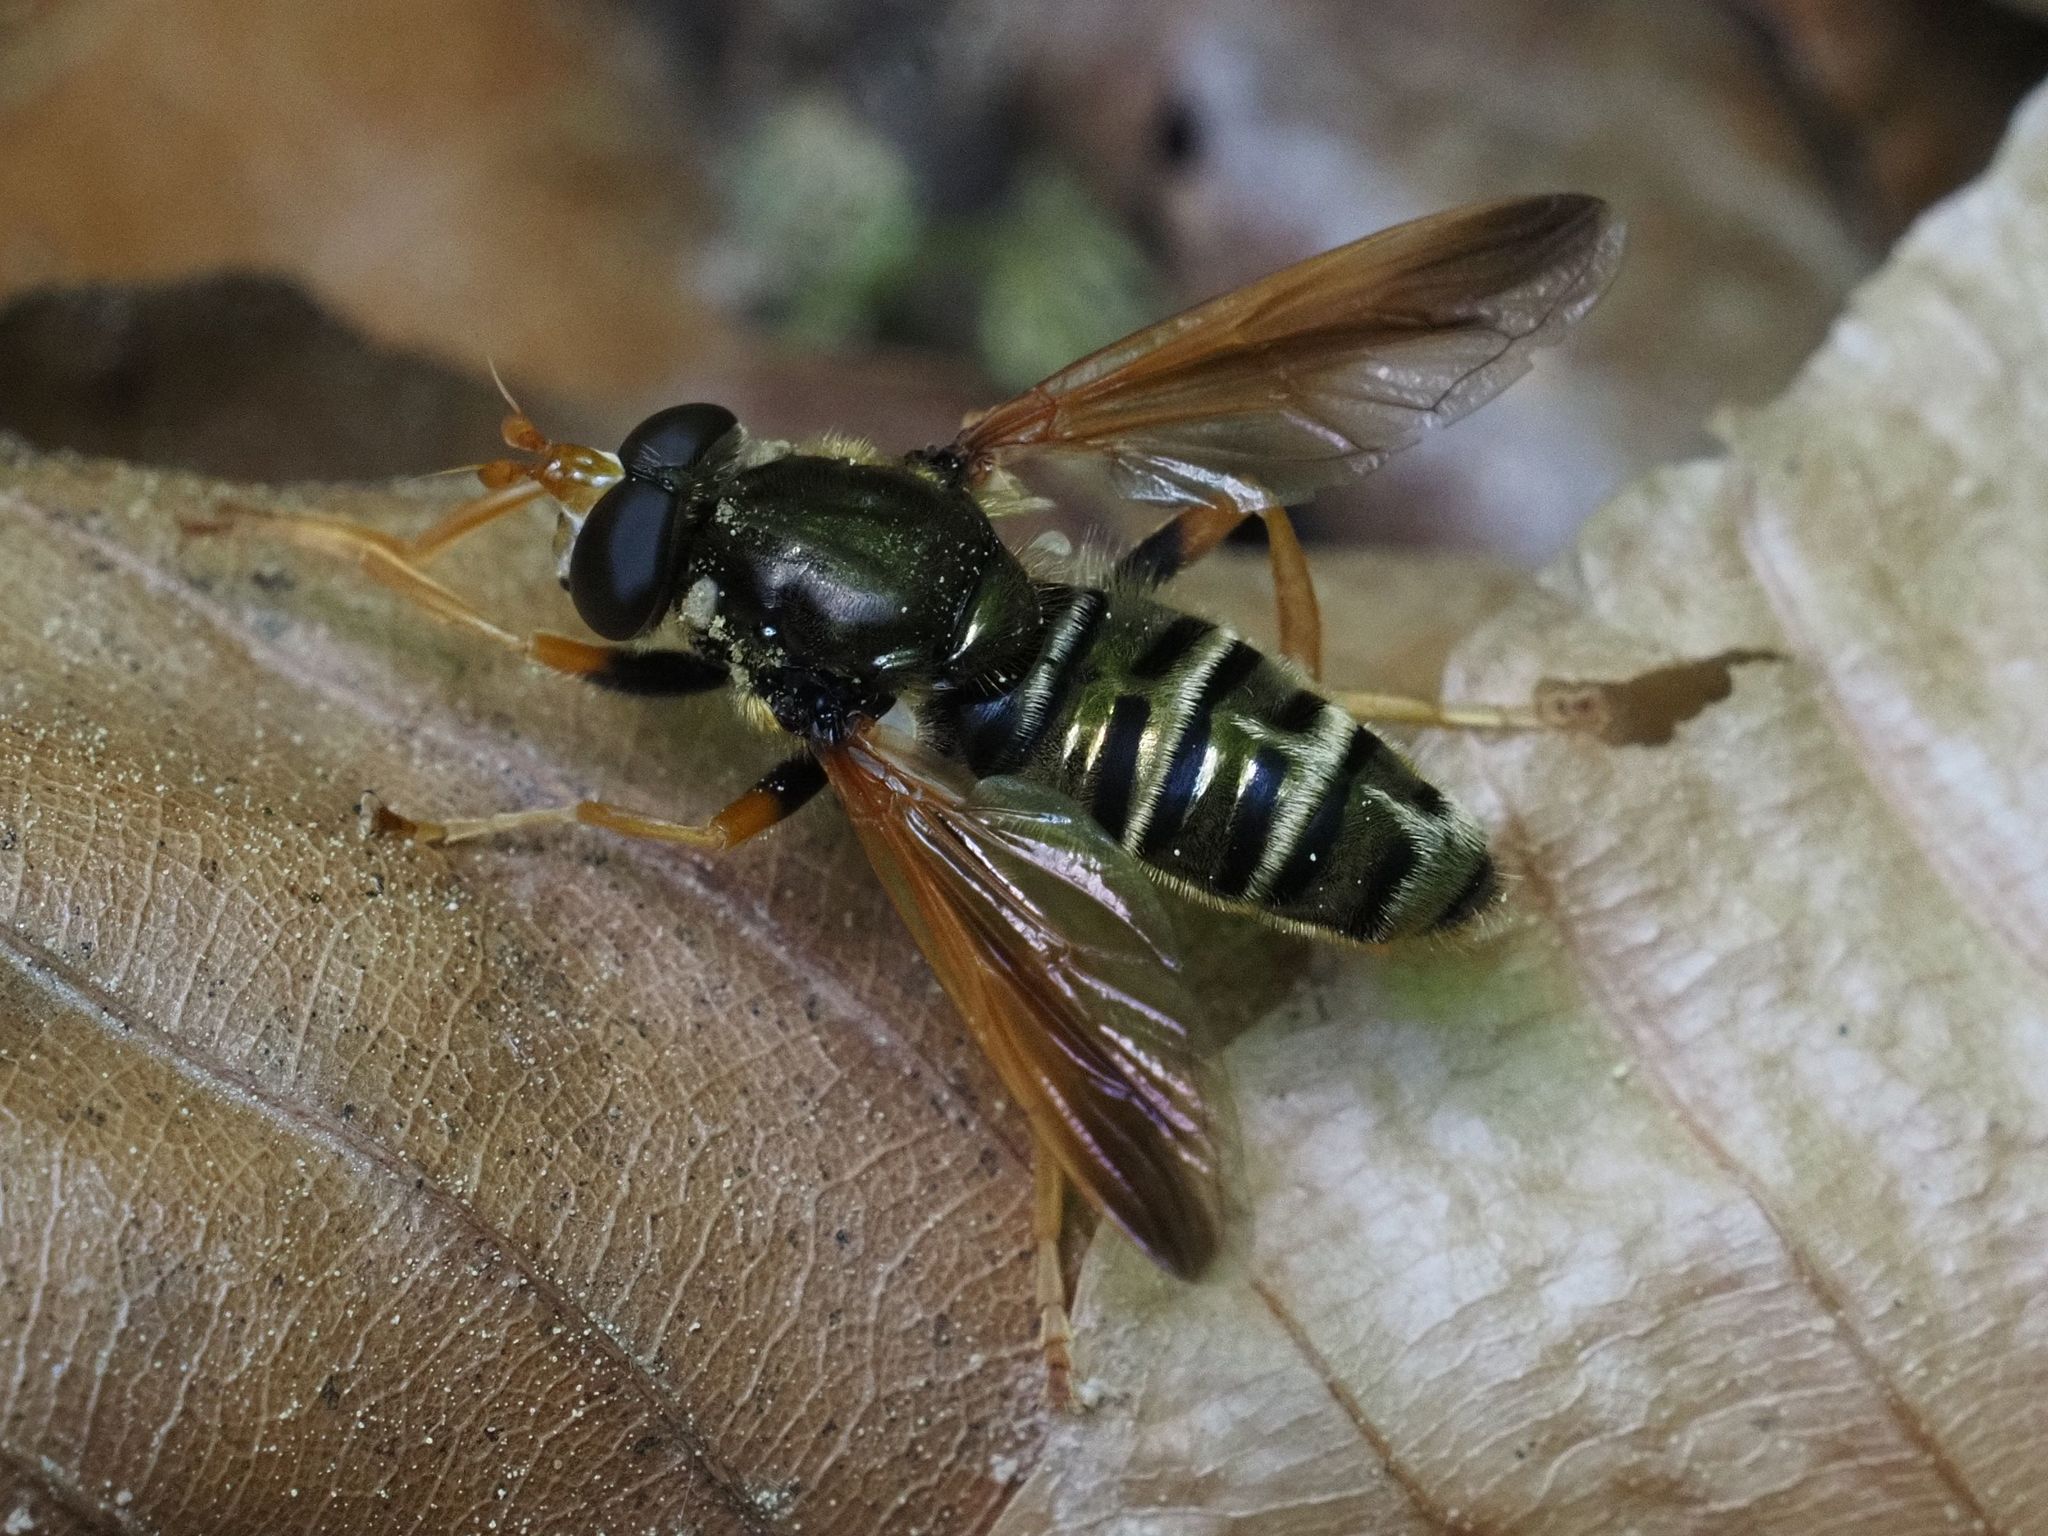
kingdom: Animalia
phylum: Arthropoda
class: Insecta
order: Diptera
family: Syrphidae
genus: Caliprobola
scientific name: Caliprobola speciosa
